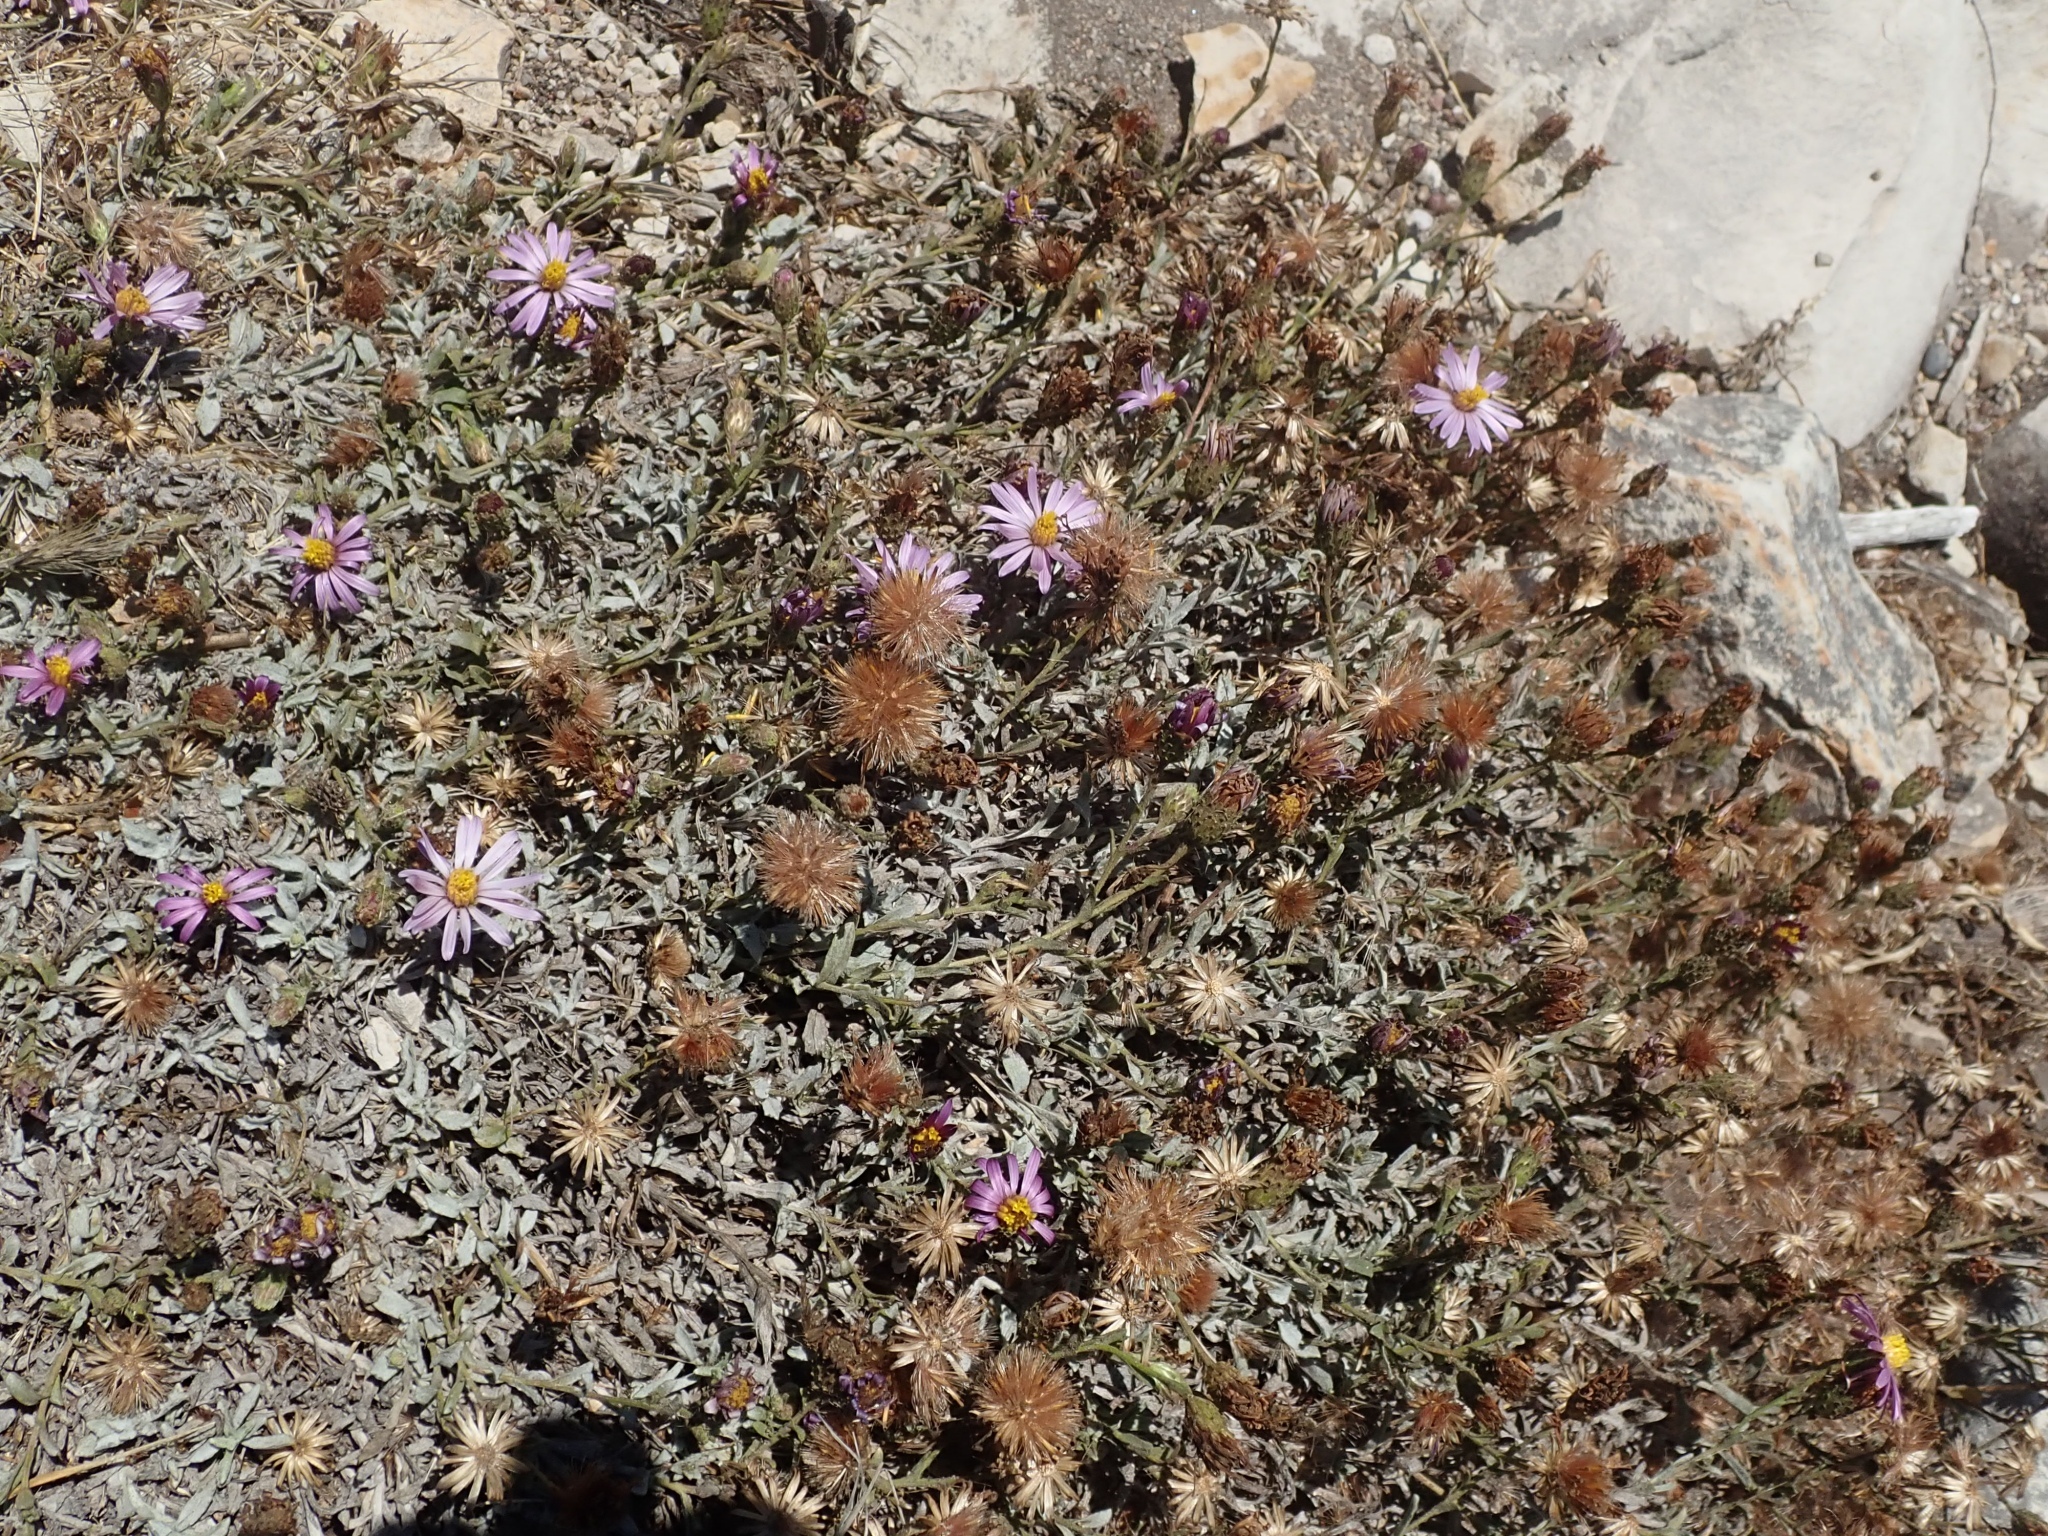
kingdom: Plantae
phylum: Tracheophyta
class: Magnoliopsida
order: Asterales
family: Asteraceae
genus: Corethrogyne
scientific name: Corethrogyne filaginifolia
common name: Sand-aster
